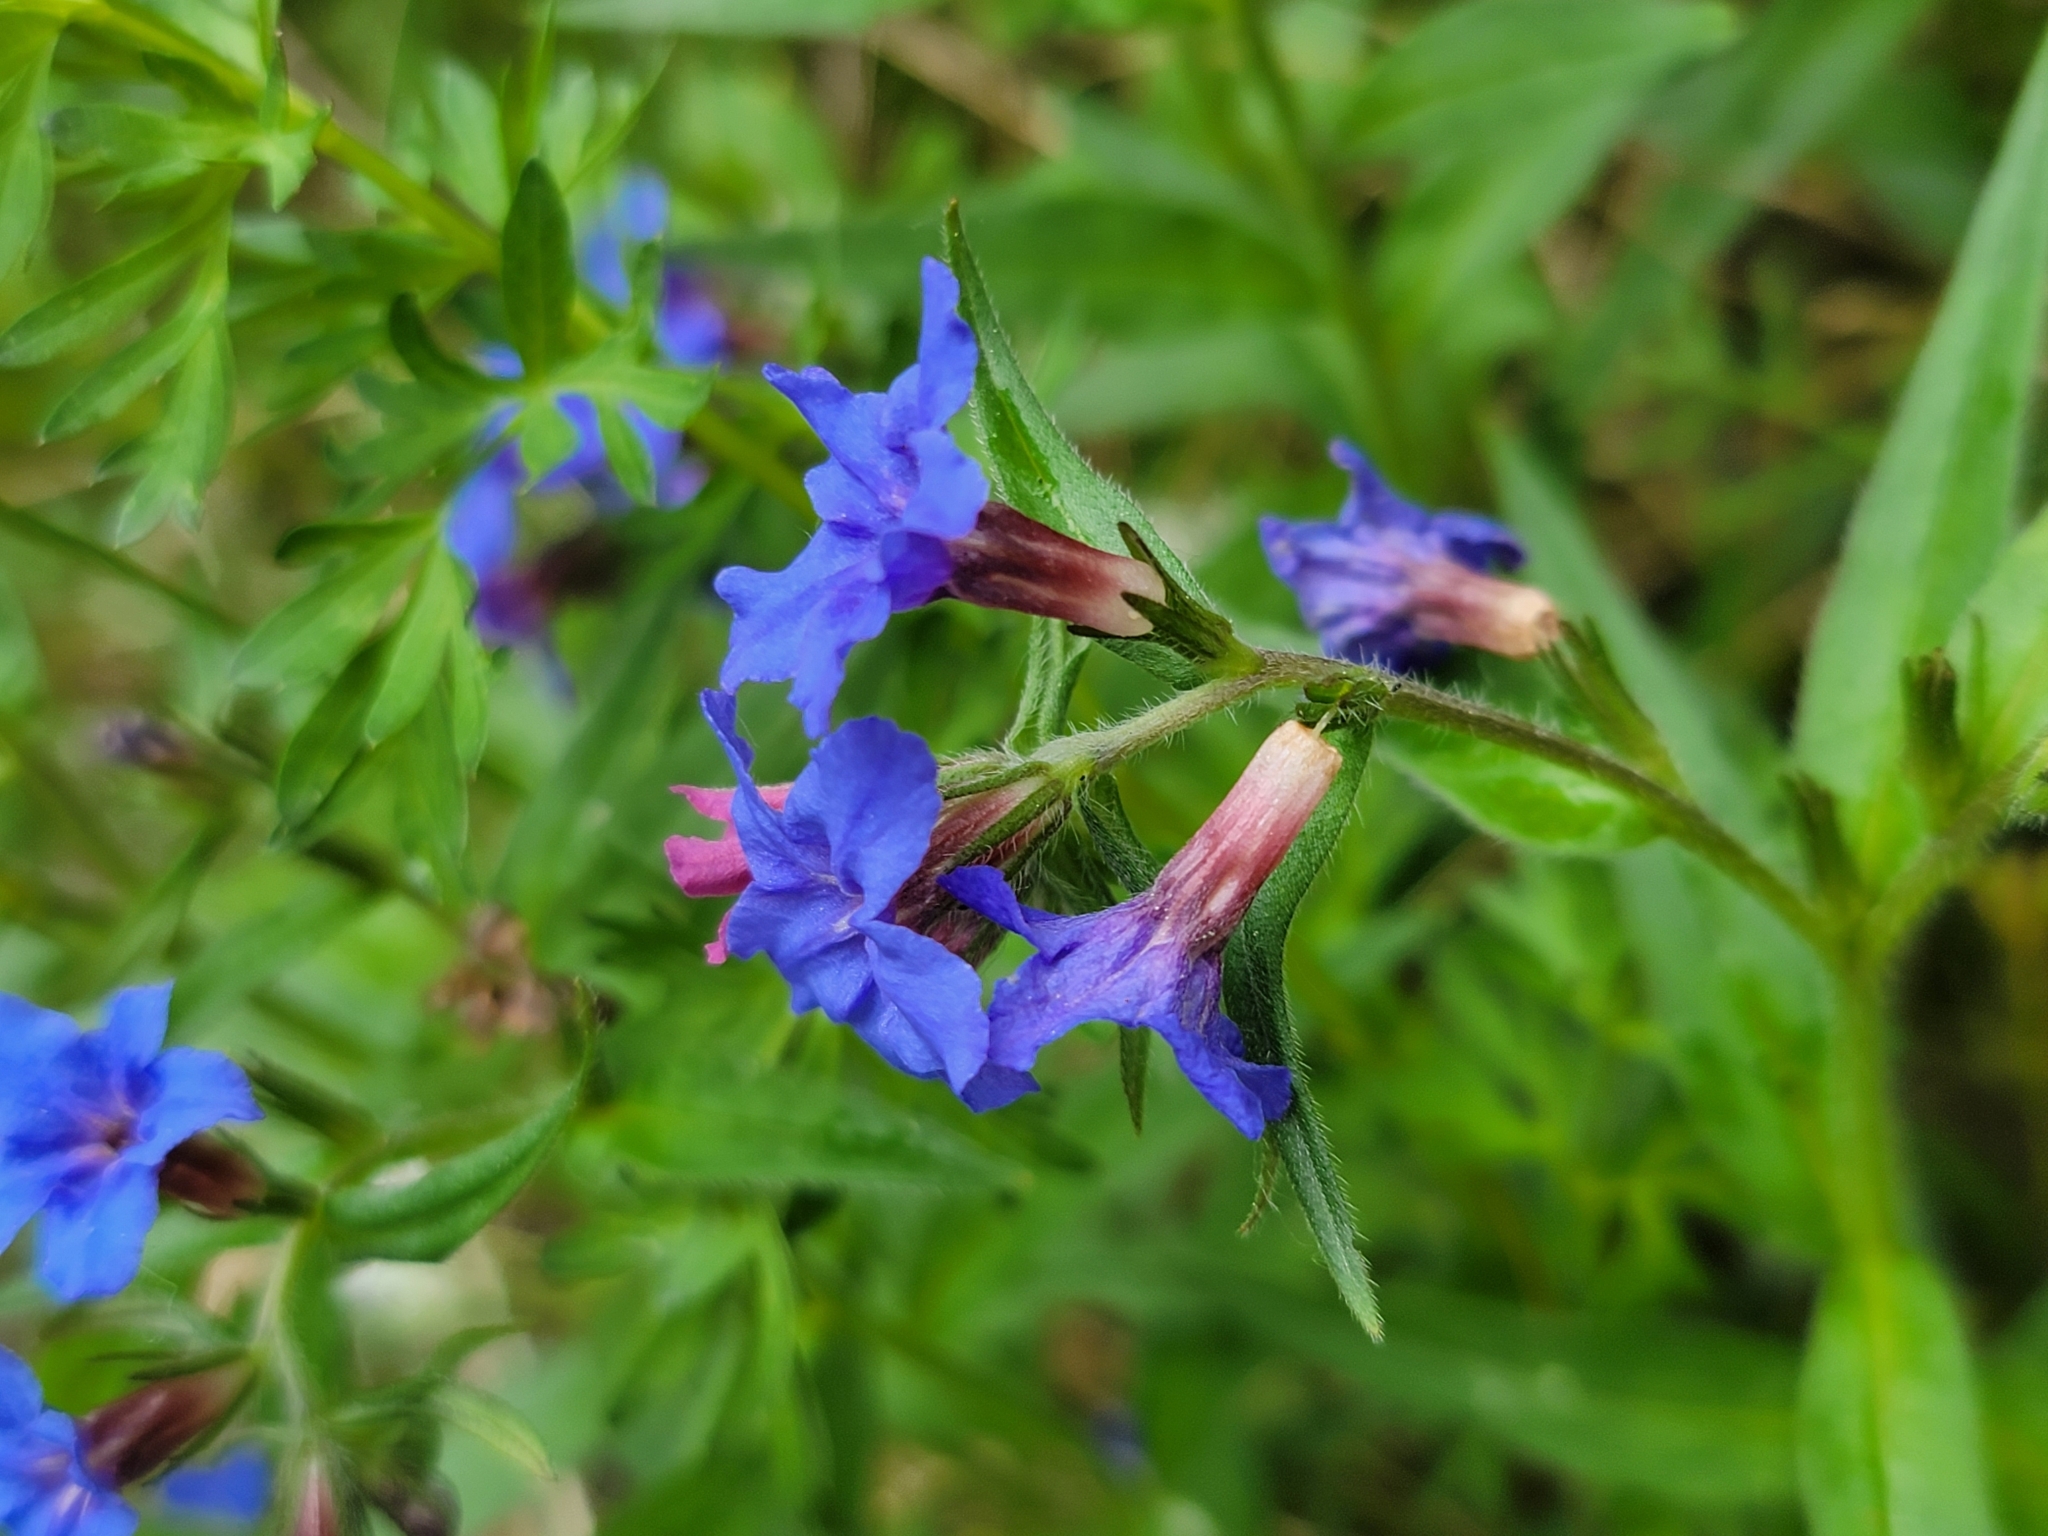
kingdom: Plantae
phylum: Tracheophyta
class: Magnoliopsida
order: Boraginales
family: Boraginaceae
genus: Aegonychon
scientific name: Aegonychon purpurocaeruleum
